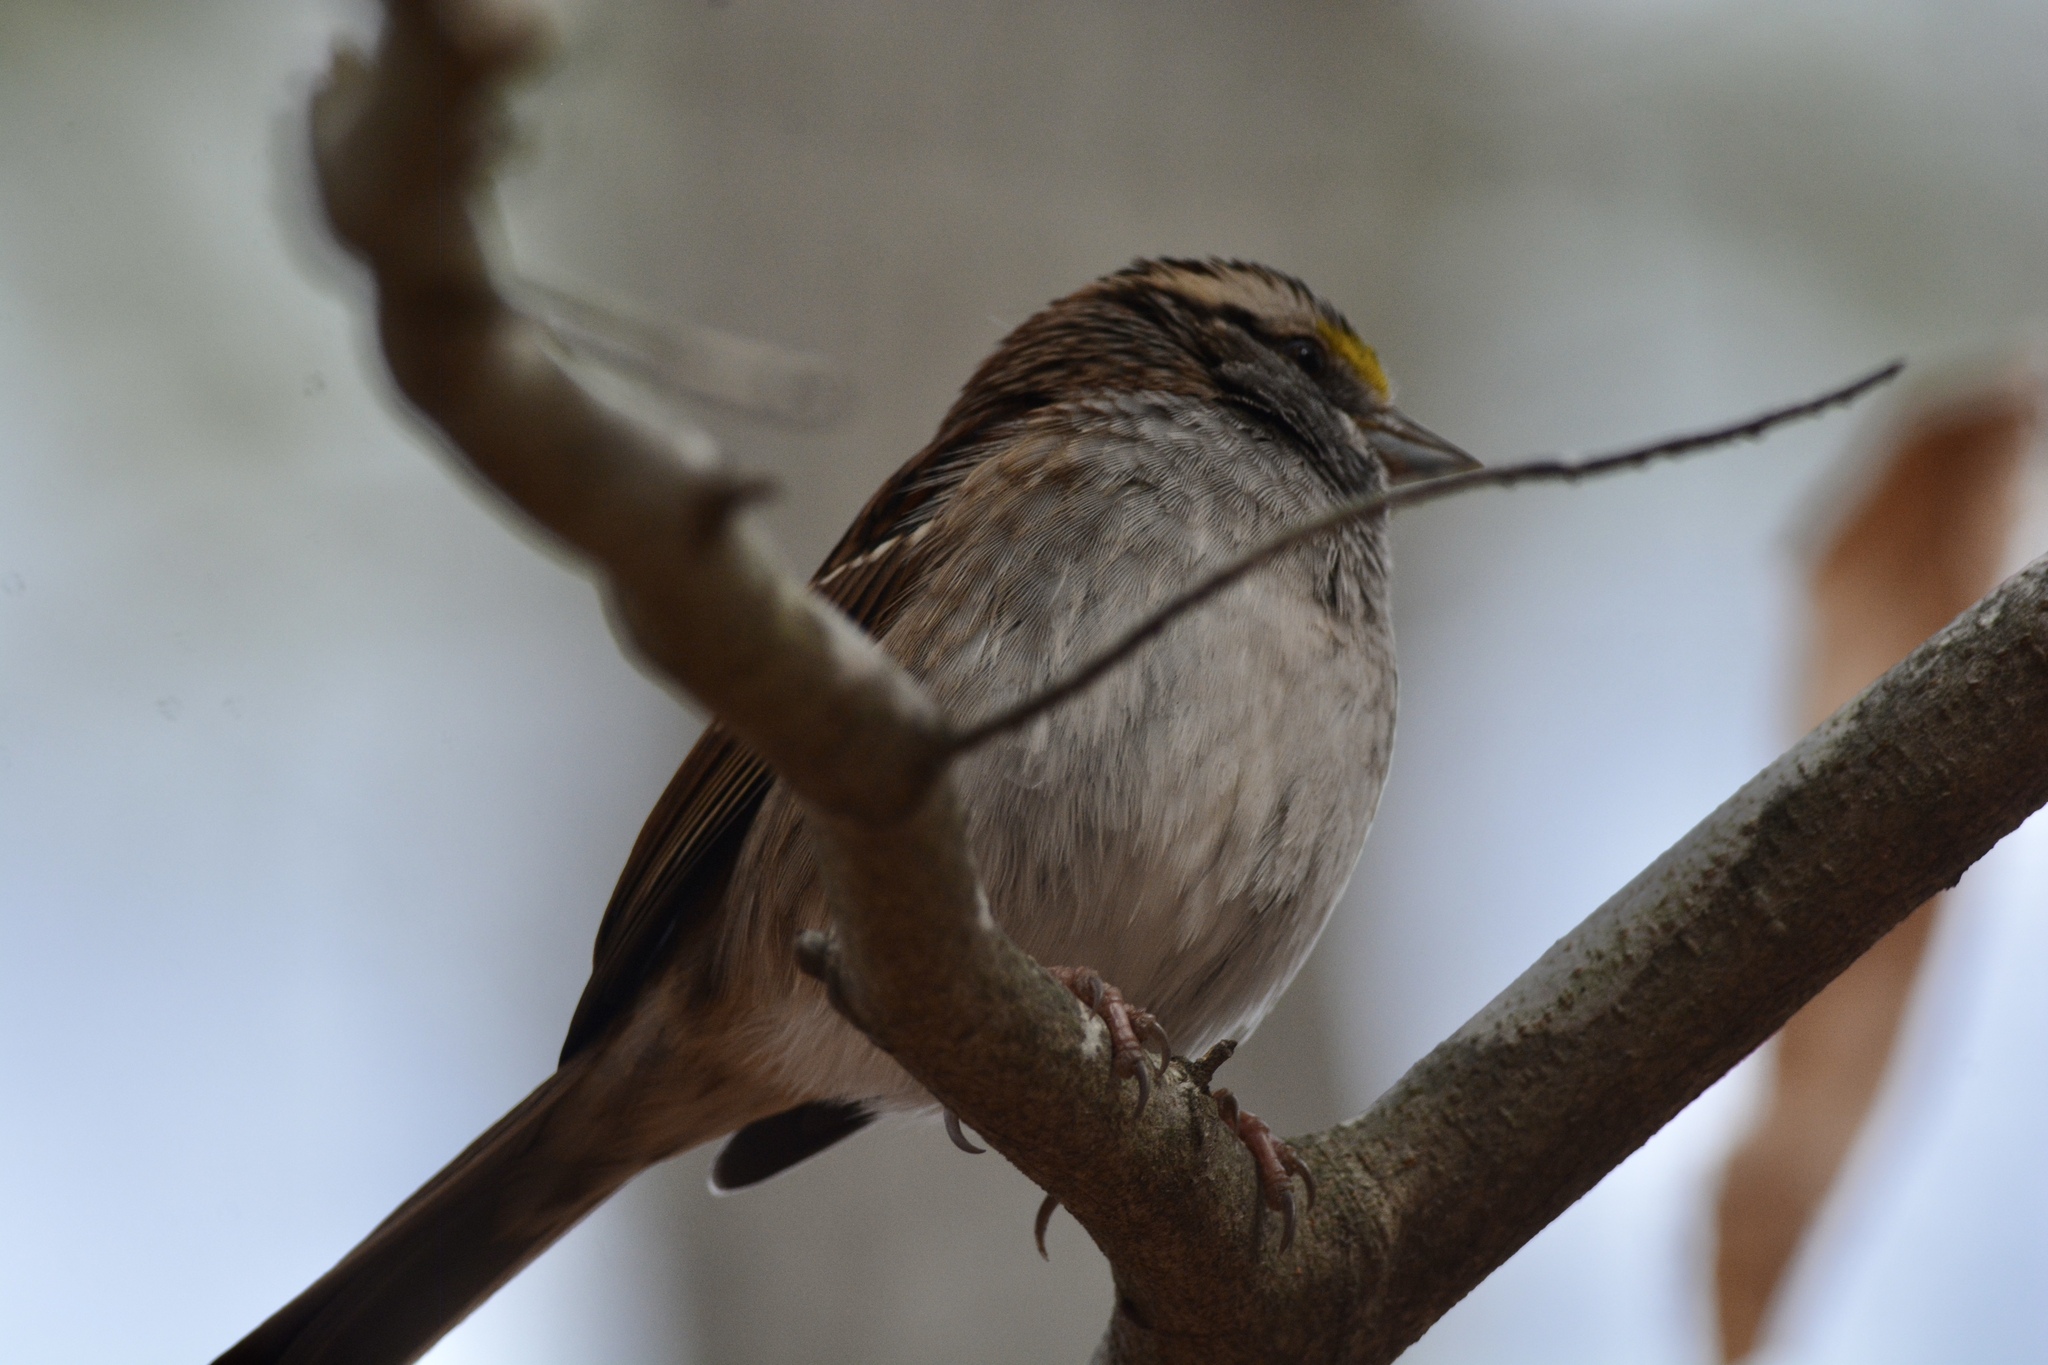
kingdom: Animalia
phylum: Chordata
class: Aves
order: Passeriformes
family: Passerellidae
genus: Zonotrichia
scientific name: Zonotrichia albicollis
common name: White-throated sparrow
